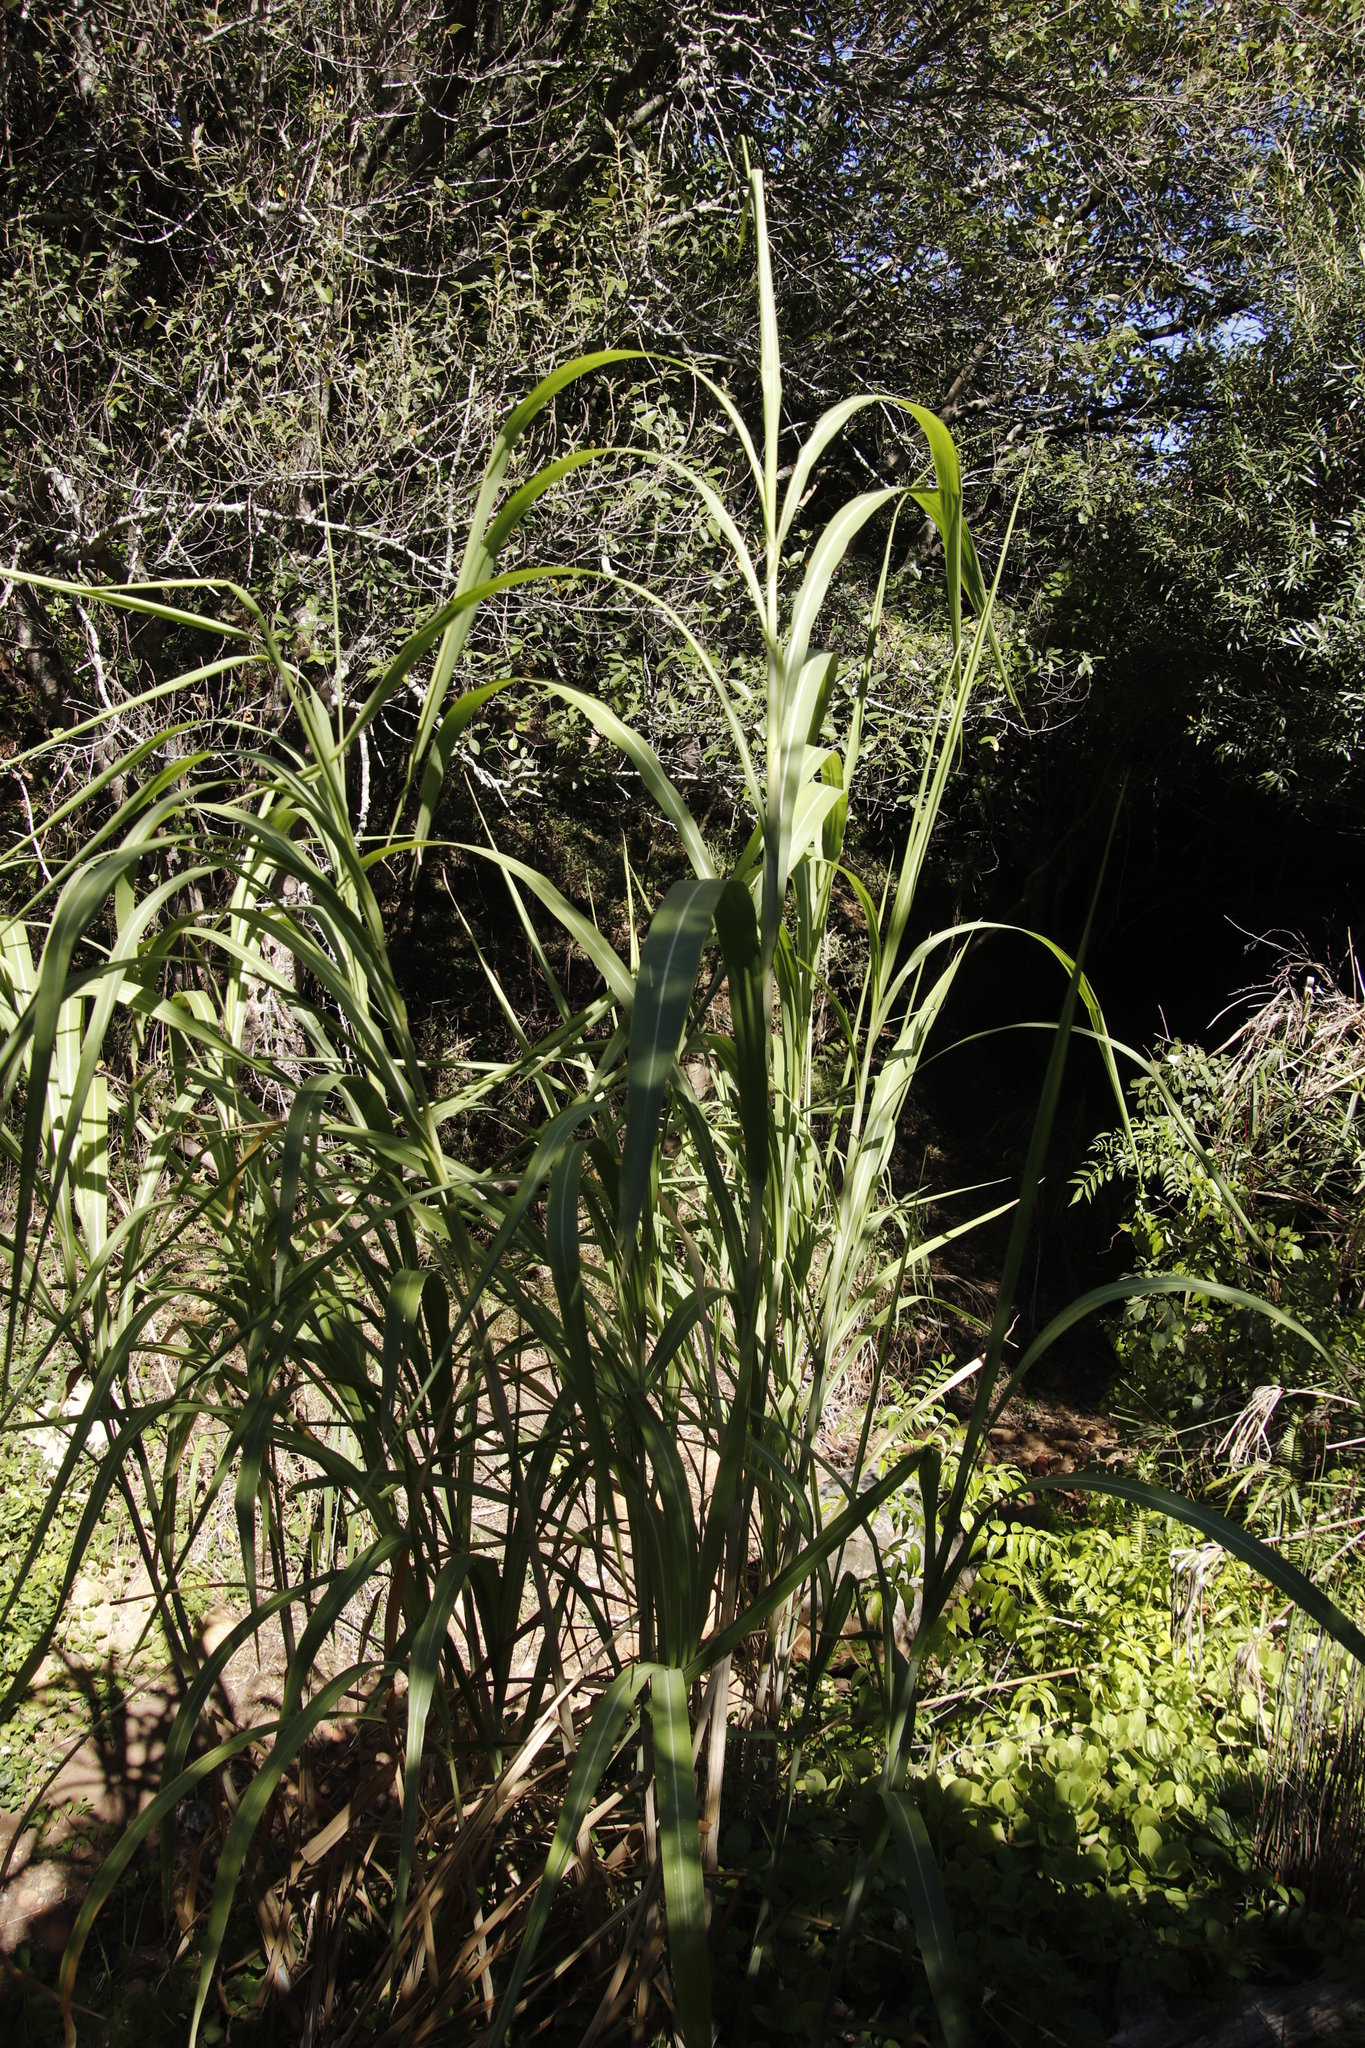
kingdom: Plantae
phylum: Tracheophyta
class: Liliopsida
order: Poales
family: Poaceae
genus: Arundo
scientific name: Arundo donax
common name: Giant reed
